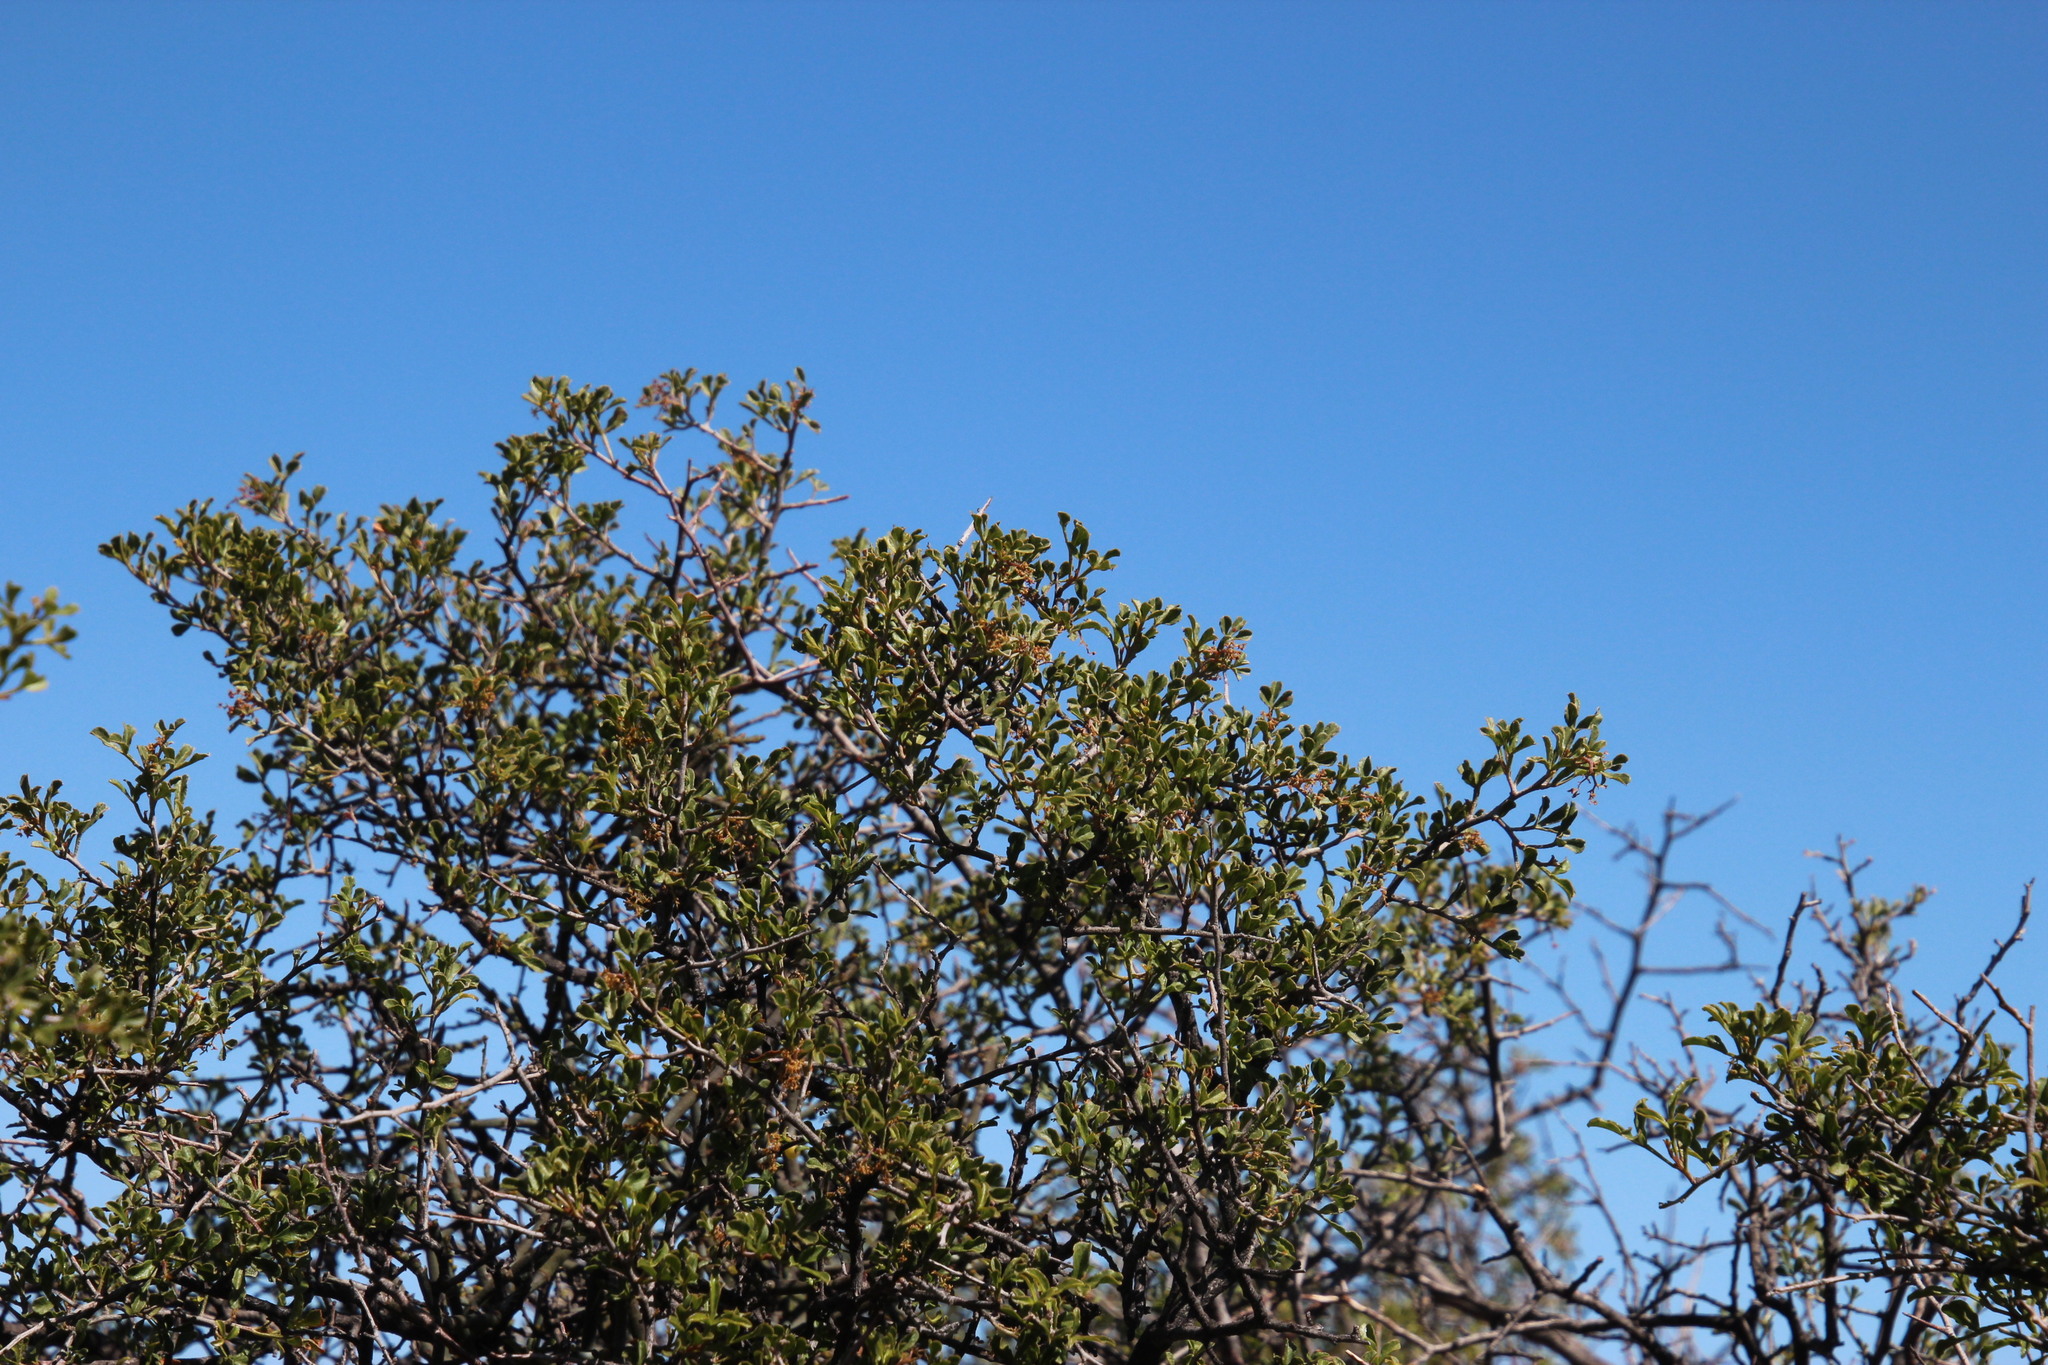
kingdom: Plantae
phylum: Tracheophyta
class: Magnoliopsida
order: Sapindales
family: Anacardiaceae
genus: Searsia
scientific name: Searsia undulata
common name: Namaqua kunibush
